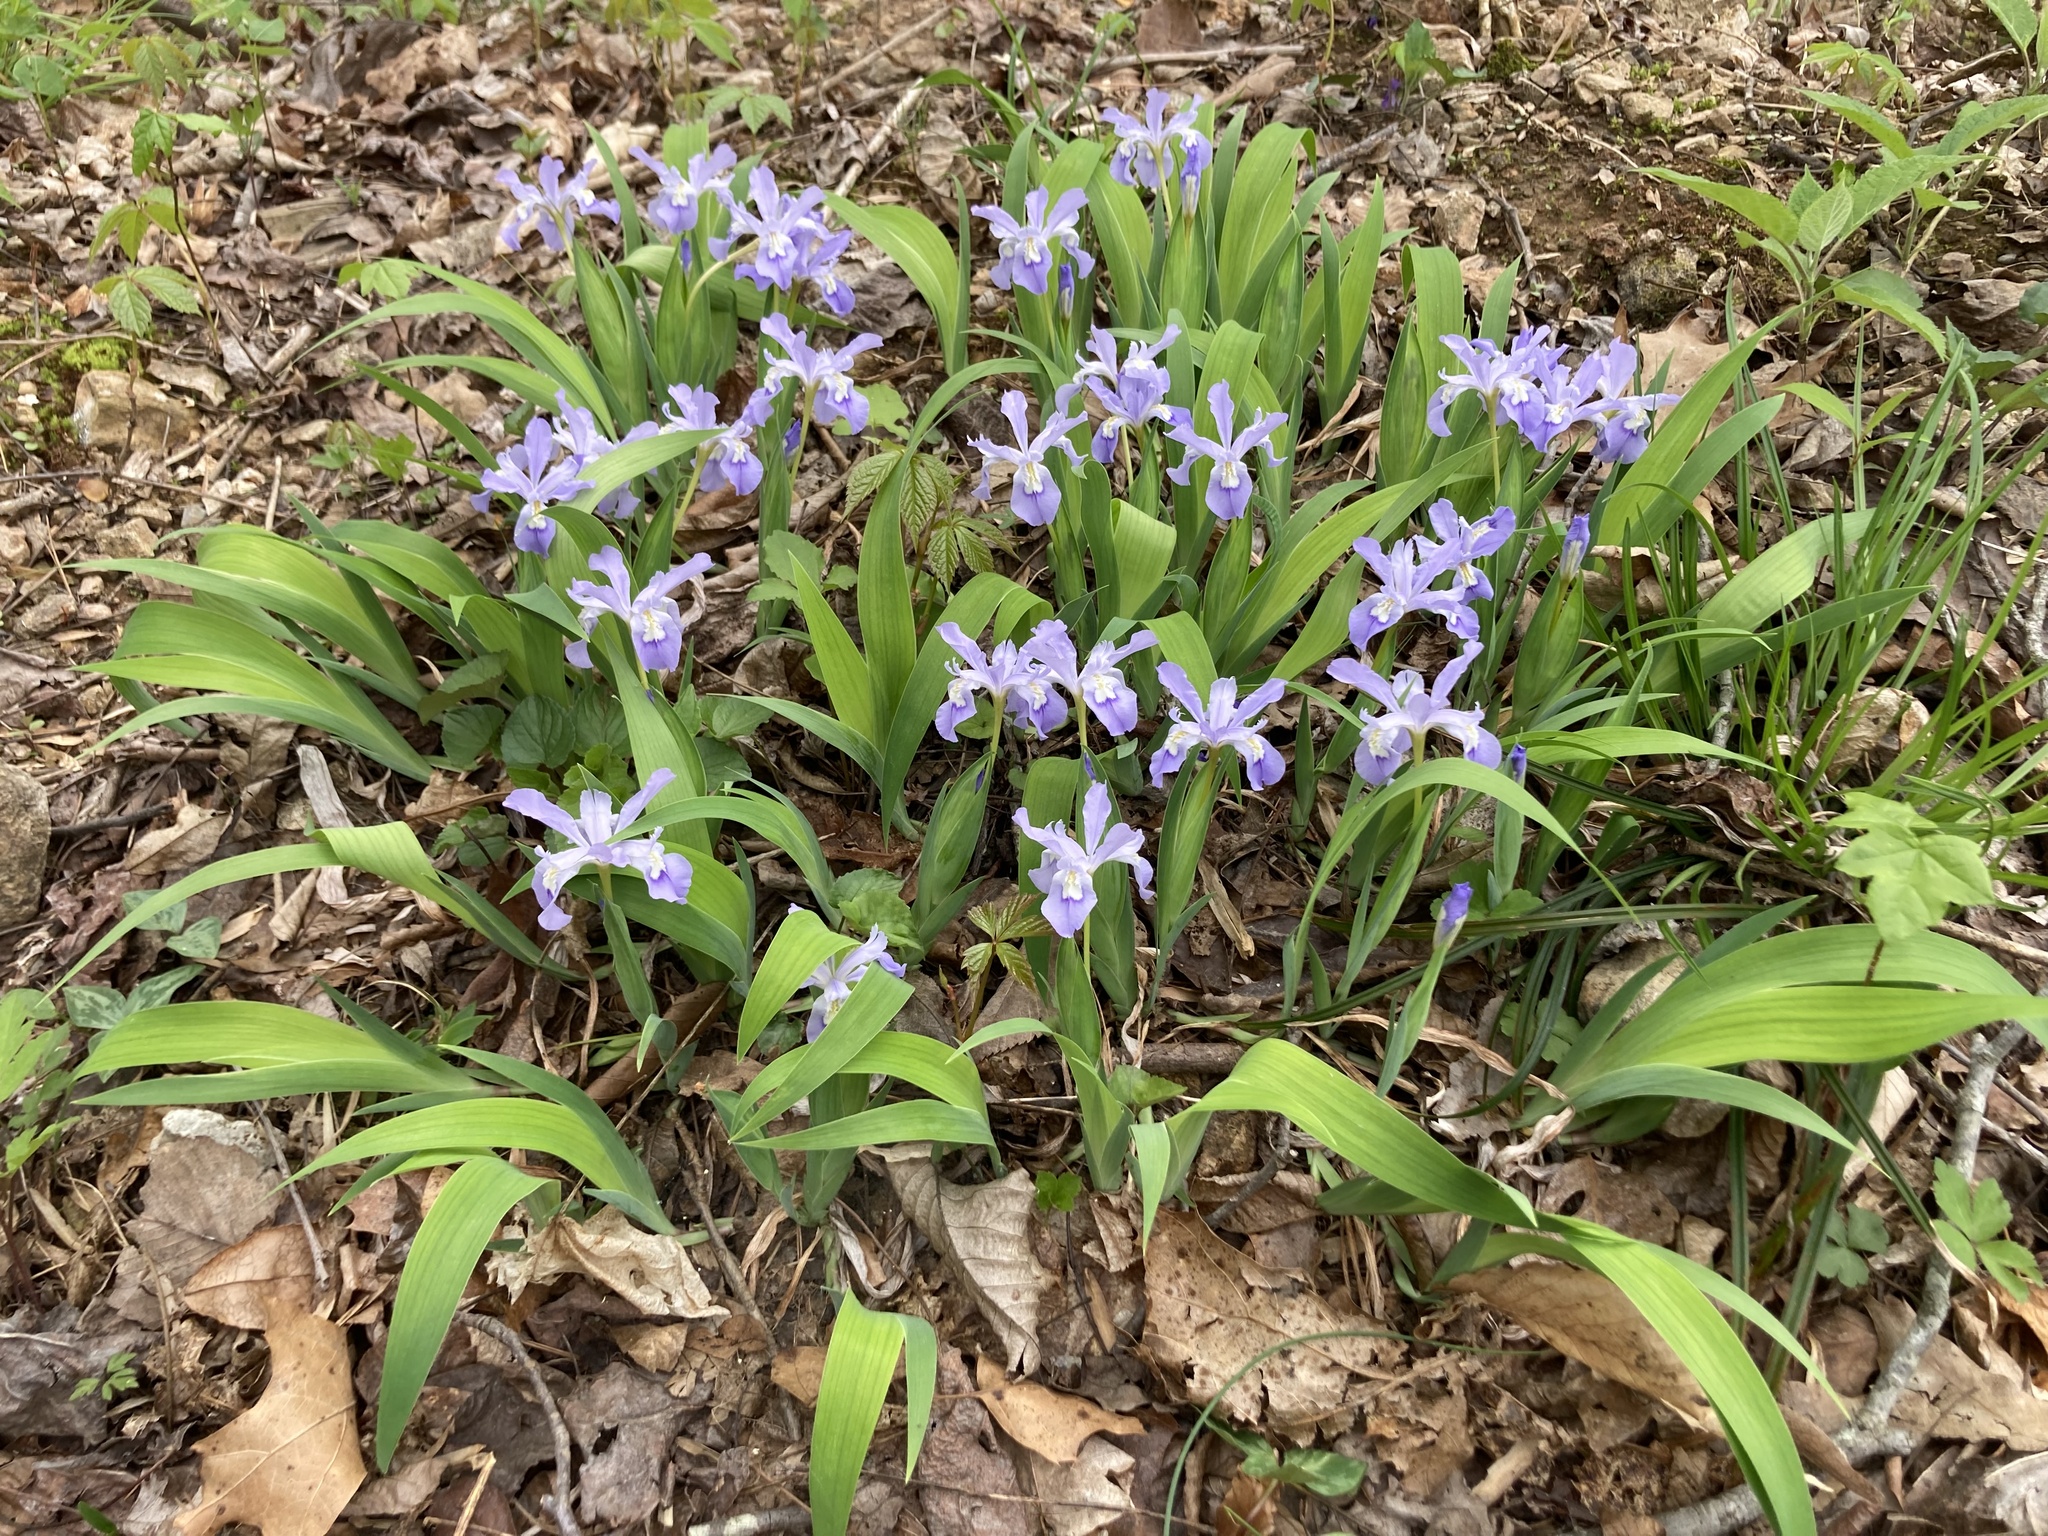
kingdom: Plantae
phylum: Tracheophyta
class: Liliopsida
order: Asparagales
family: Iridaceae
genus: Iris
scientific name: Iris cristata
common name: Crested iris
